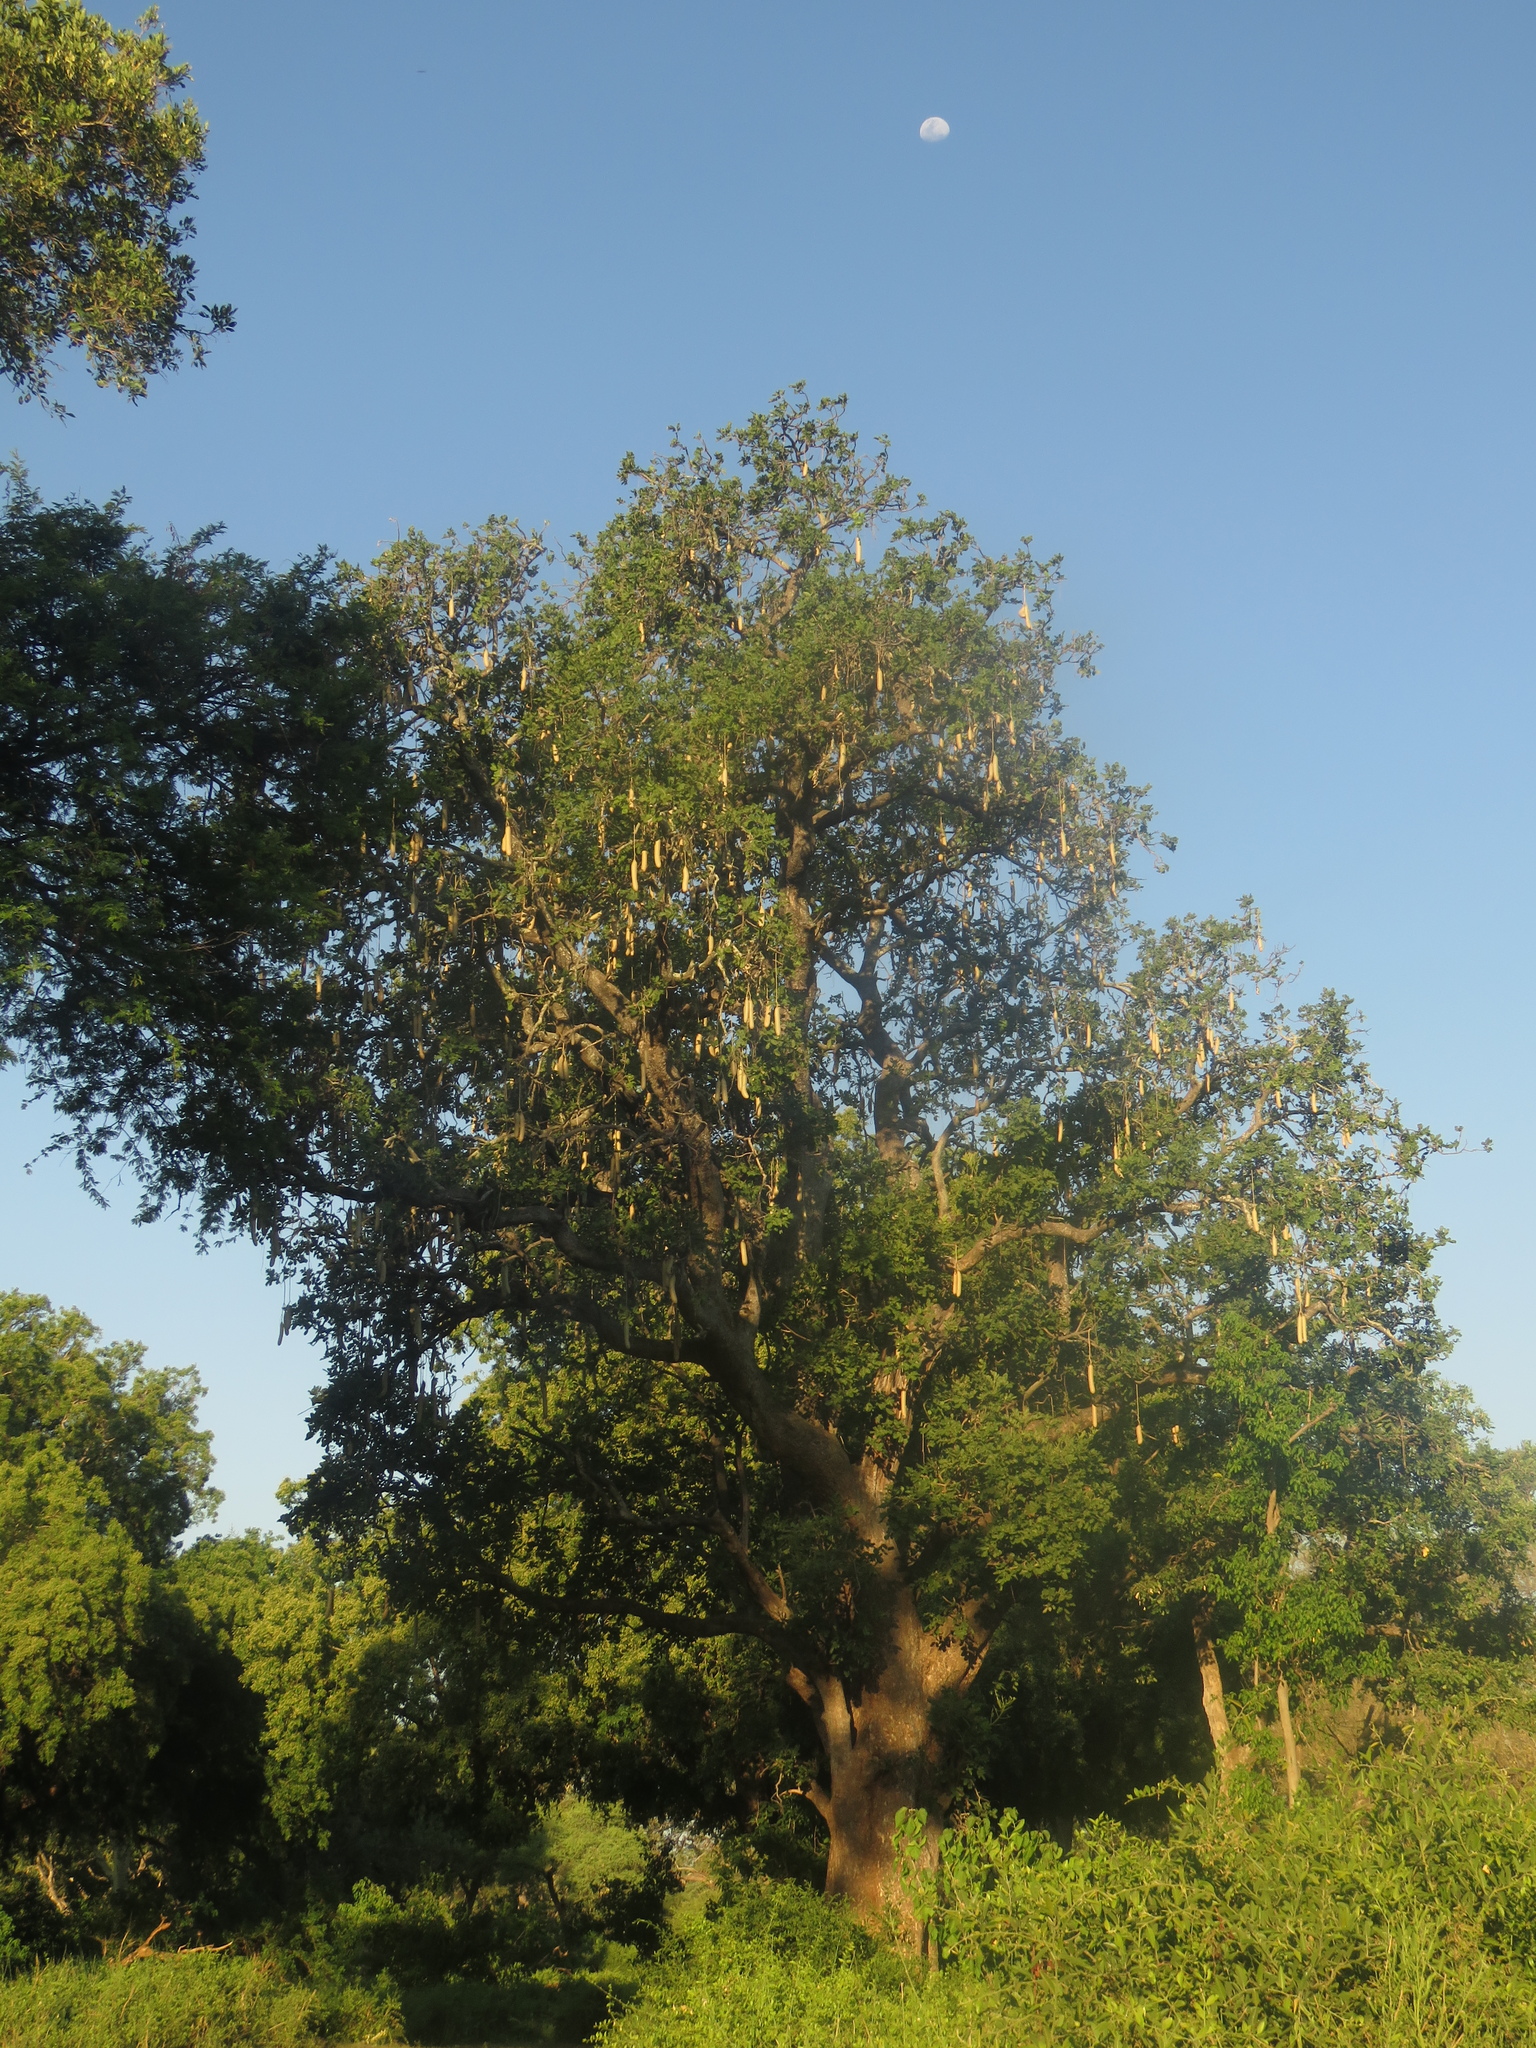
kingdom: Plantae
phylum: Tracheophyta
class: Magnoliopsida
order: Lamiales
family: Bignoniaceae
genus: Kigelia
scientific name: Kigelia africana
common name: Sausage tree
